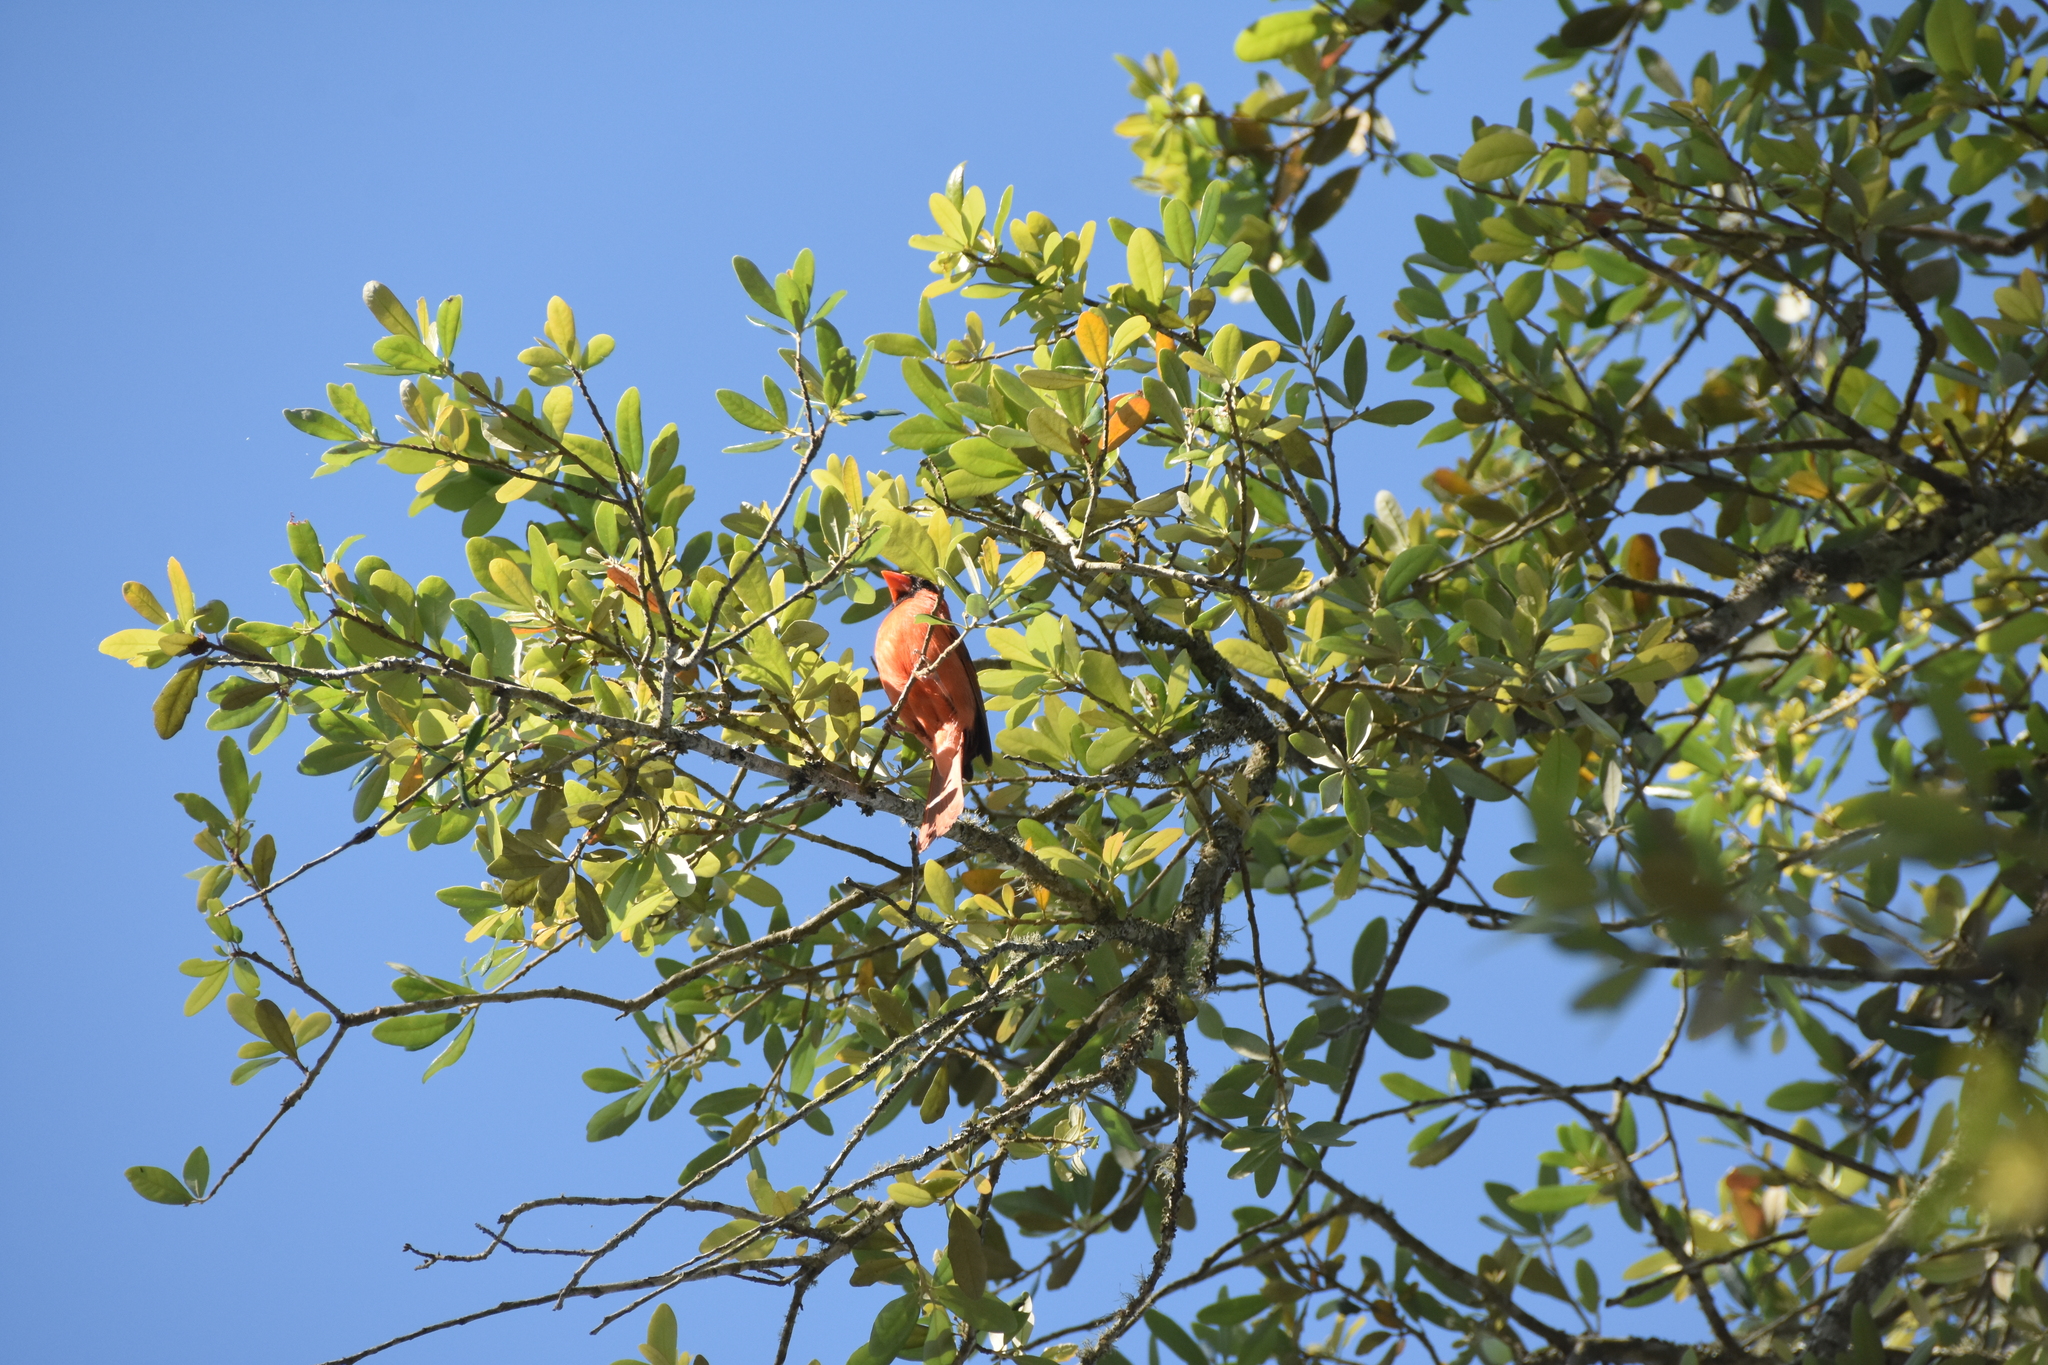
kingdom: Animalia
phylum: Chordata
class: Aves
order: Passeriformes
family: Cardinalidae
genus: Cardinalis
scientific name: Cardinalis cardinalis
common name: Northern cardinal
